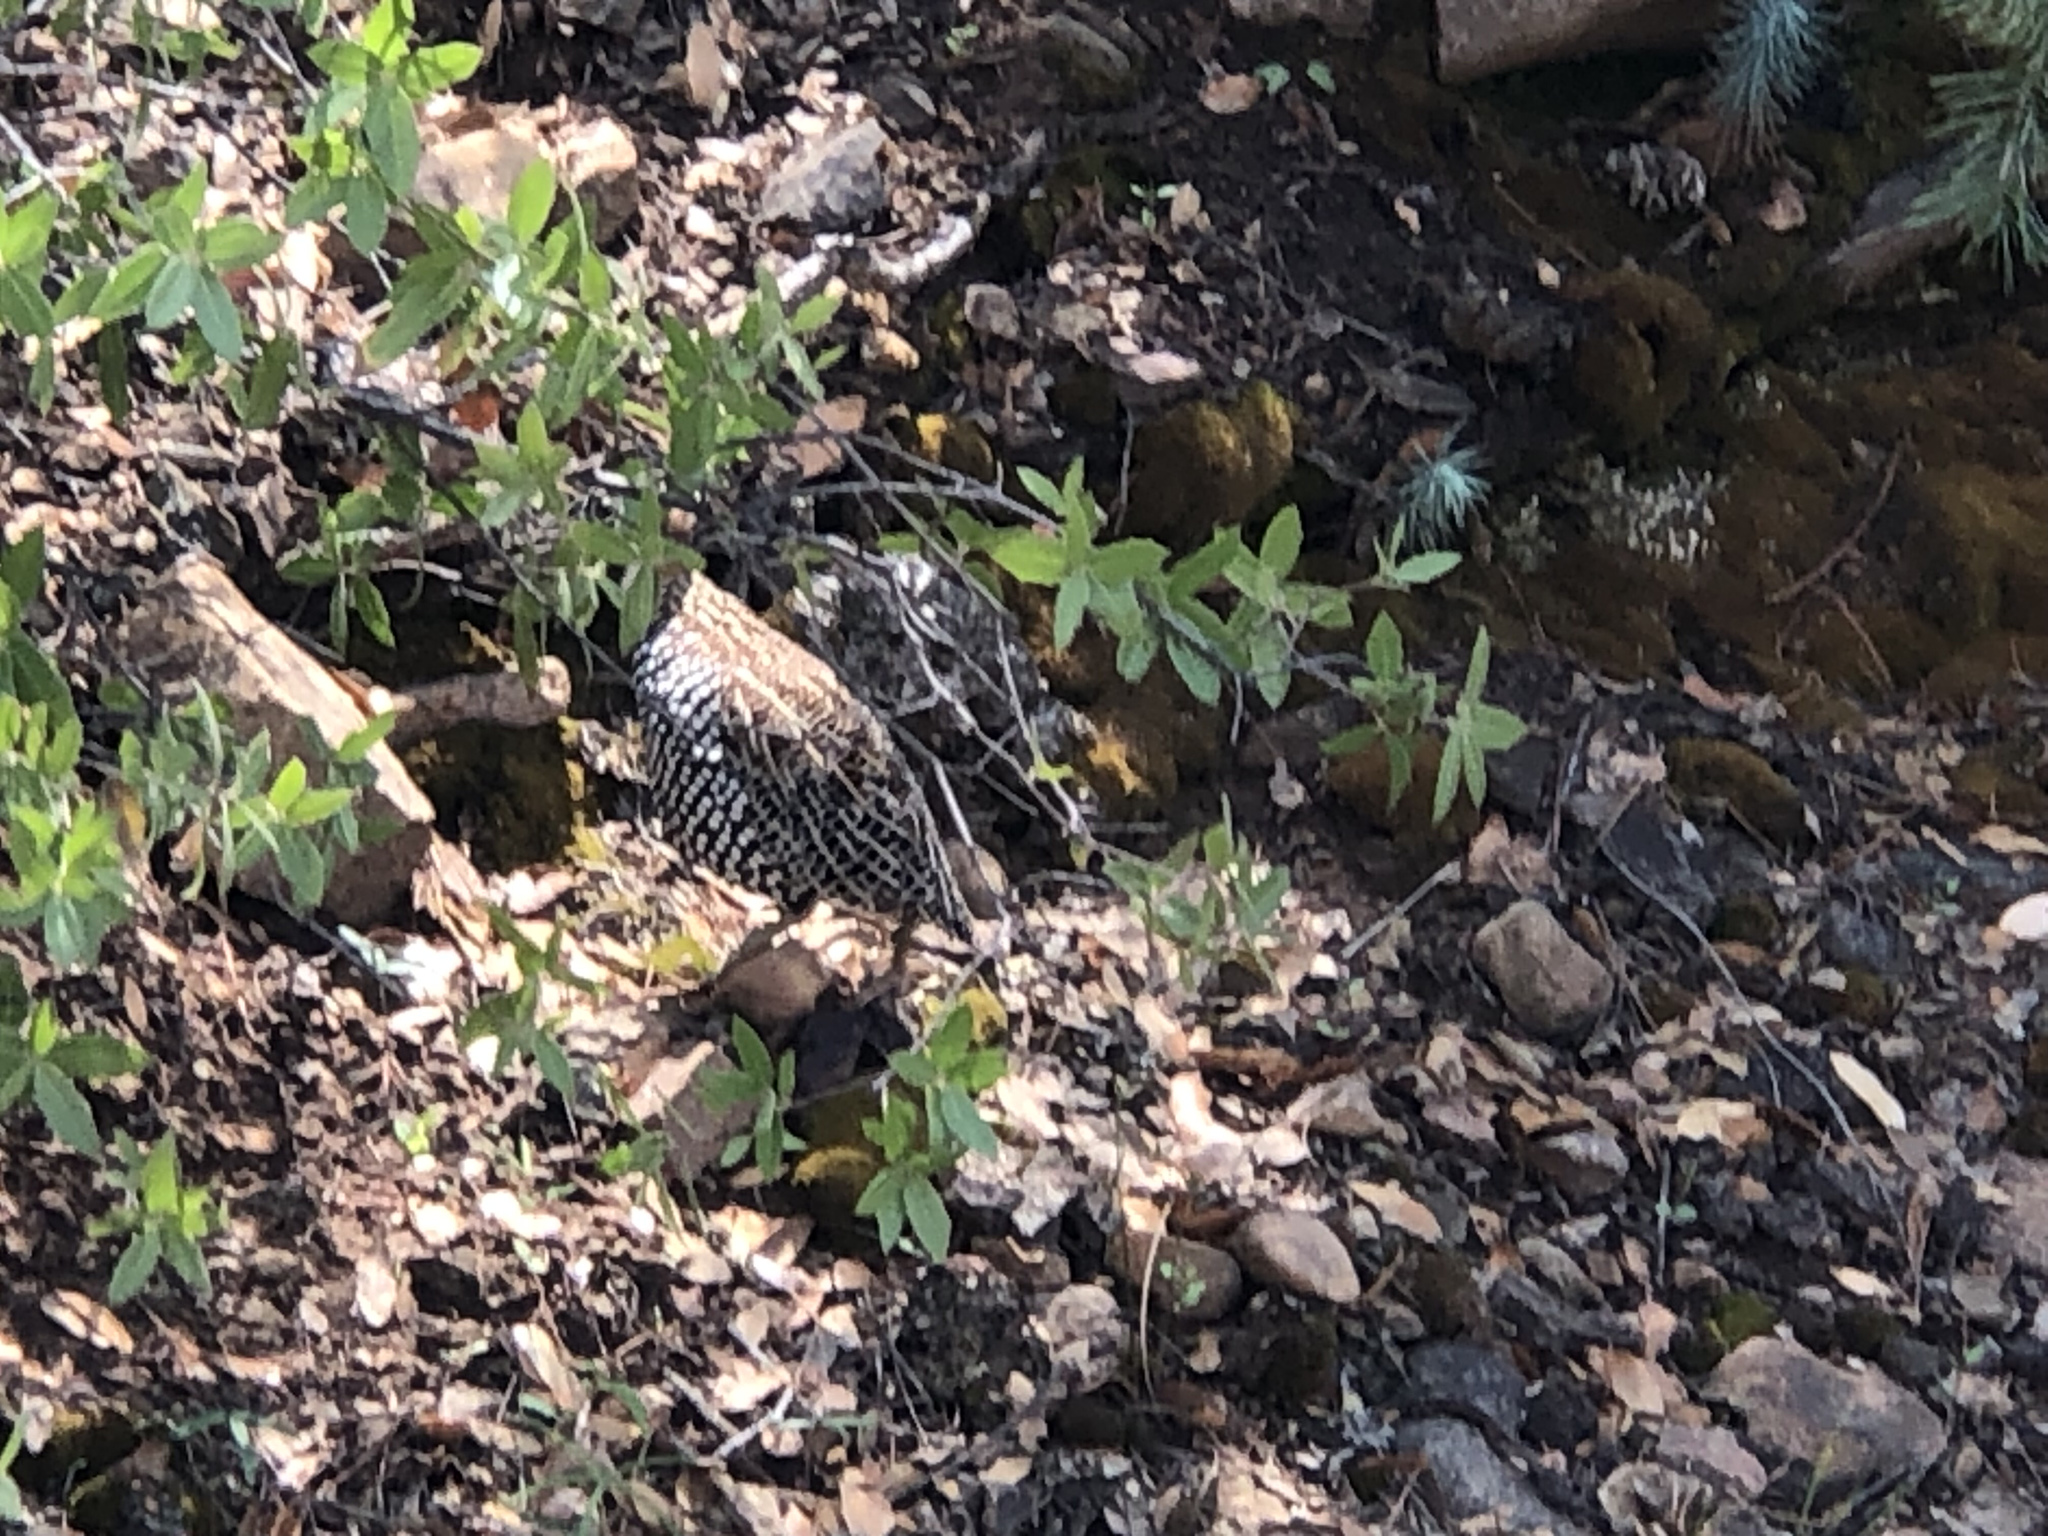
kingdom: Animalia
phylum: Chordata
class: Aves
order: Galliformes
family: Odontophoridae
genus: Cyrtonyx
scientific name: Cyrtonyx montezumae
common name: Montezuma quail
